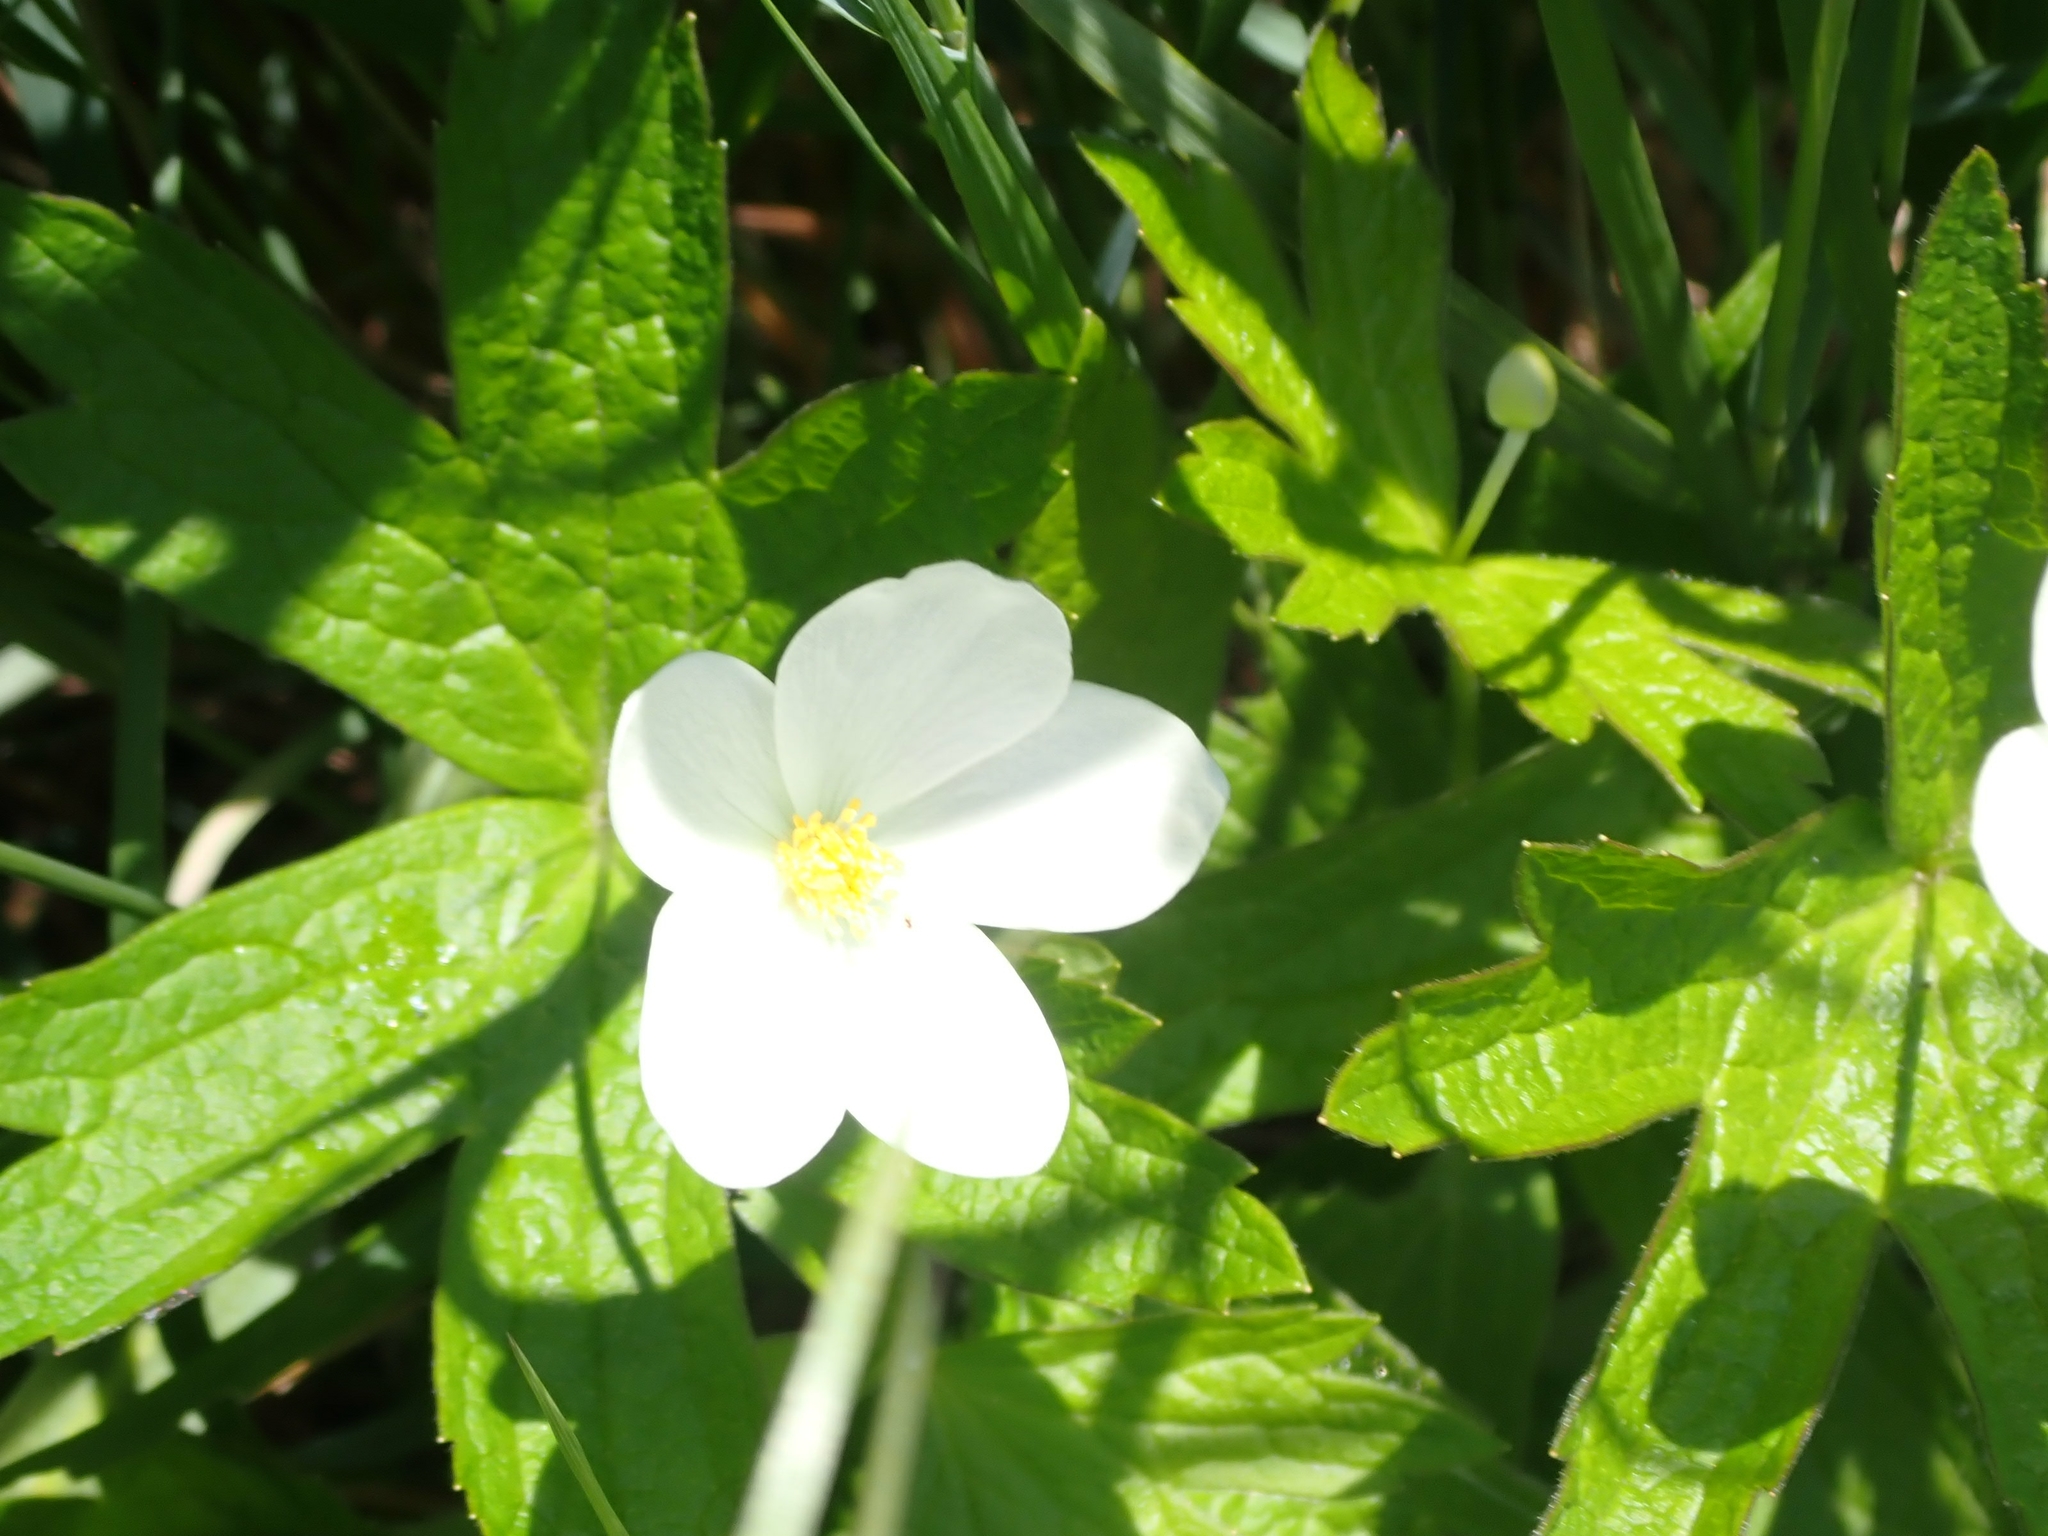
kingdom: Plantae
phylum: Tracheophyta
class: Magnoliopsida
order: Ranunculales
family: Ranunculaceae
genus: Anemonastrum
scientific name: Anemonastrum canadense
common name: Canada anemone
